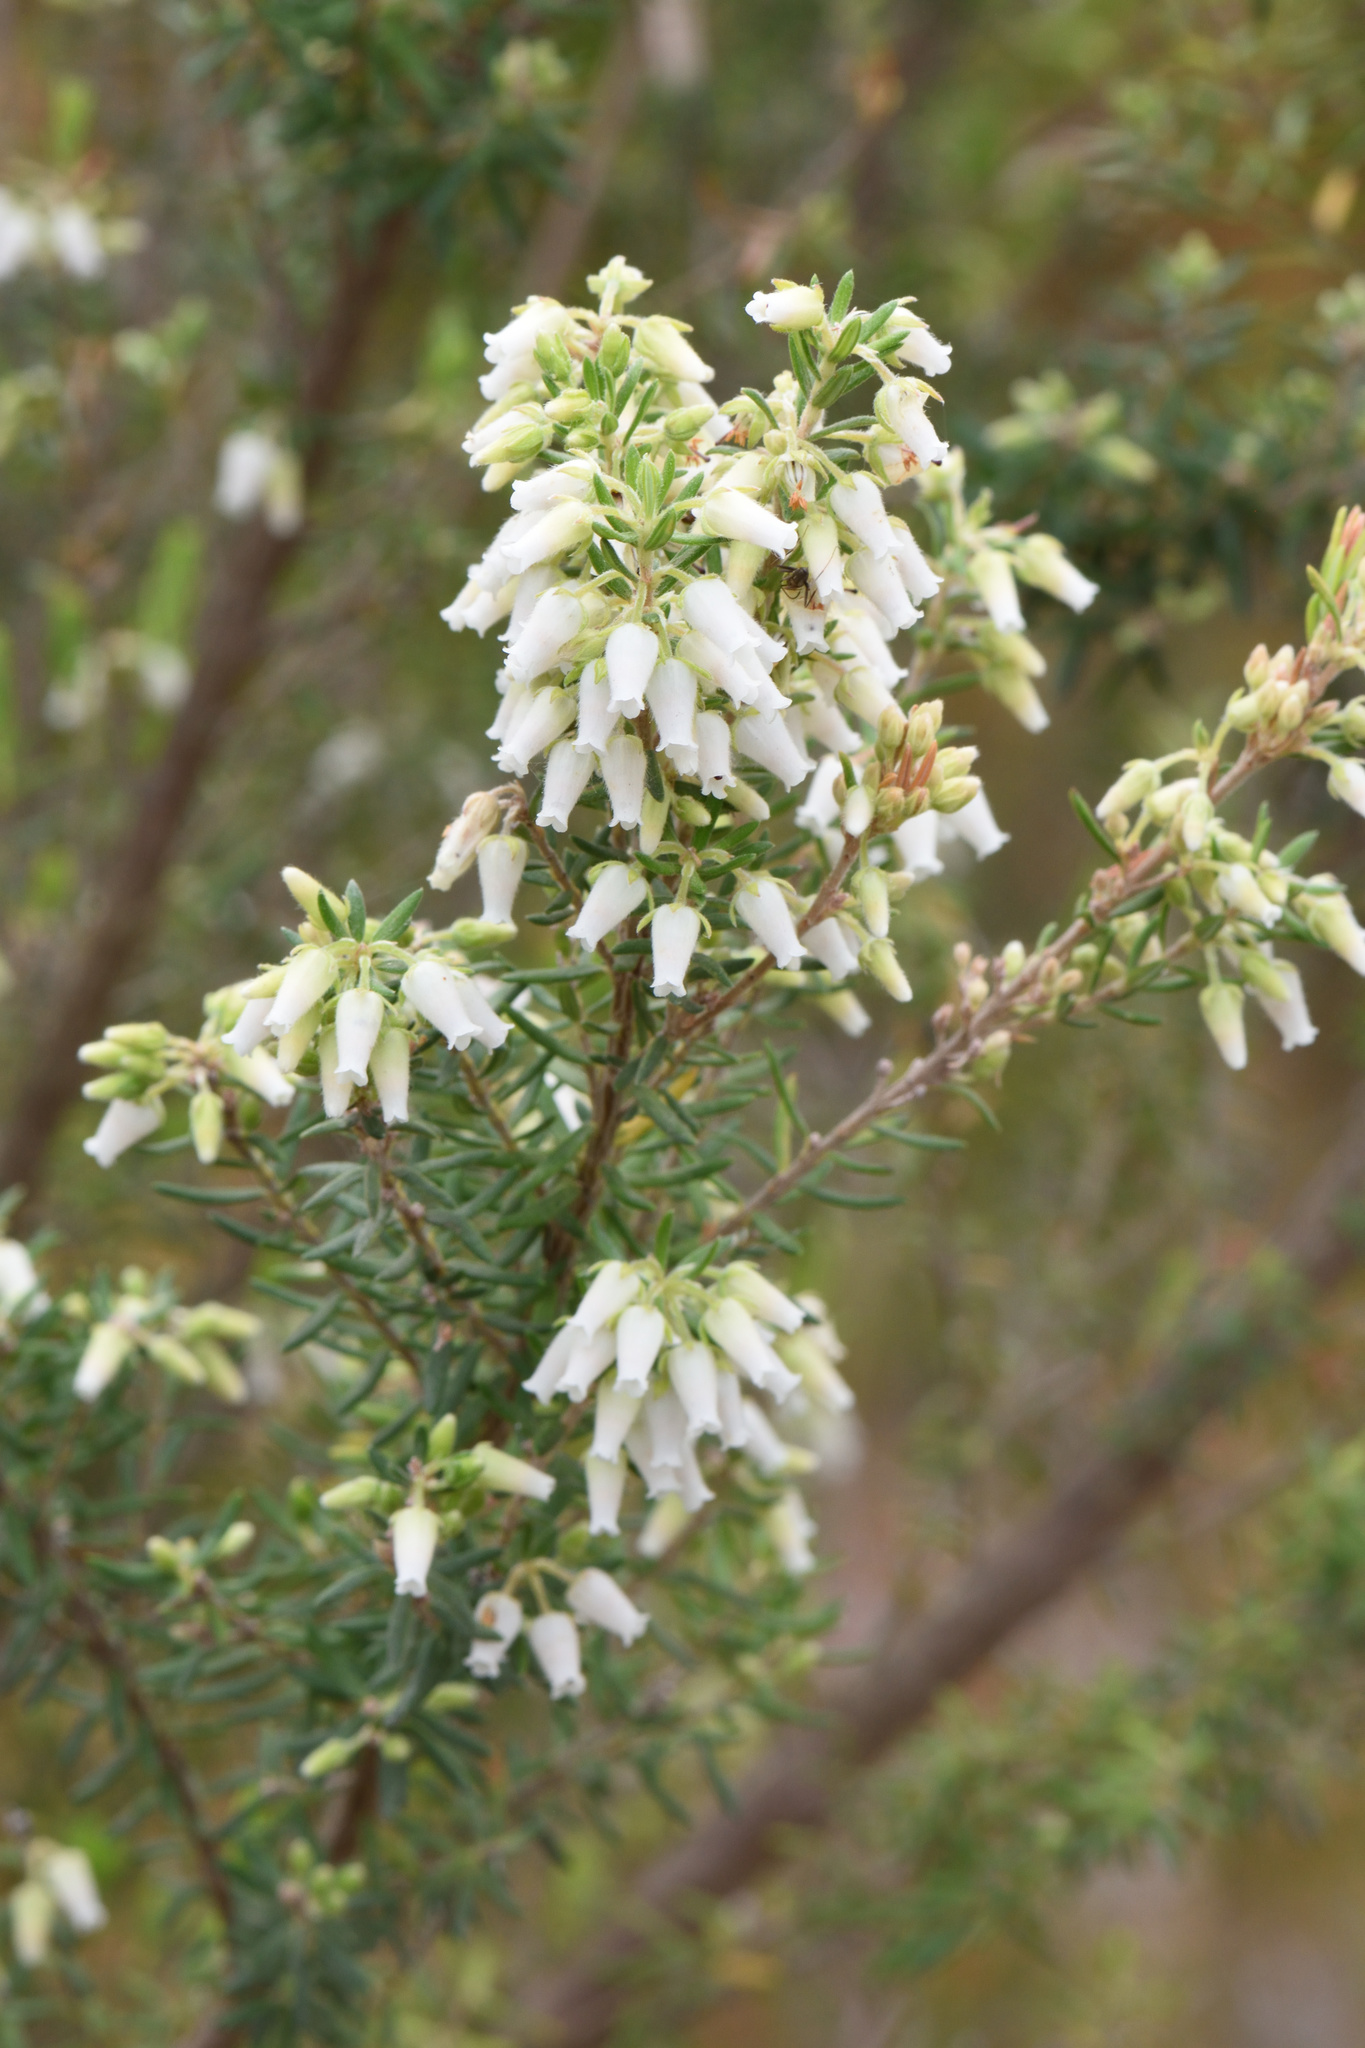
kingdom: Plantae
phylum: Tracheophyta
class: Magnoliopsida
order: Ericales
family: Ericaceae
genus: Erica
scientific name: Erica caffra
